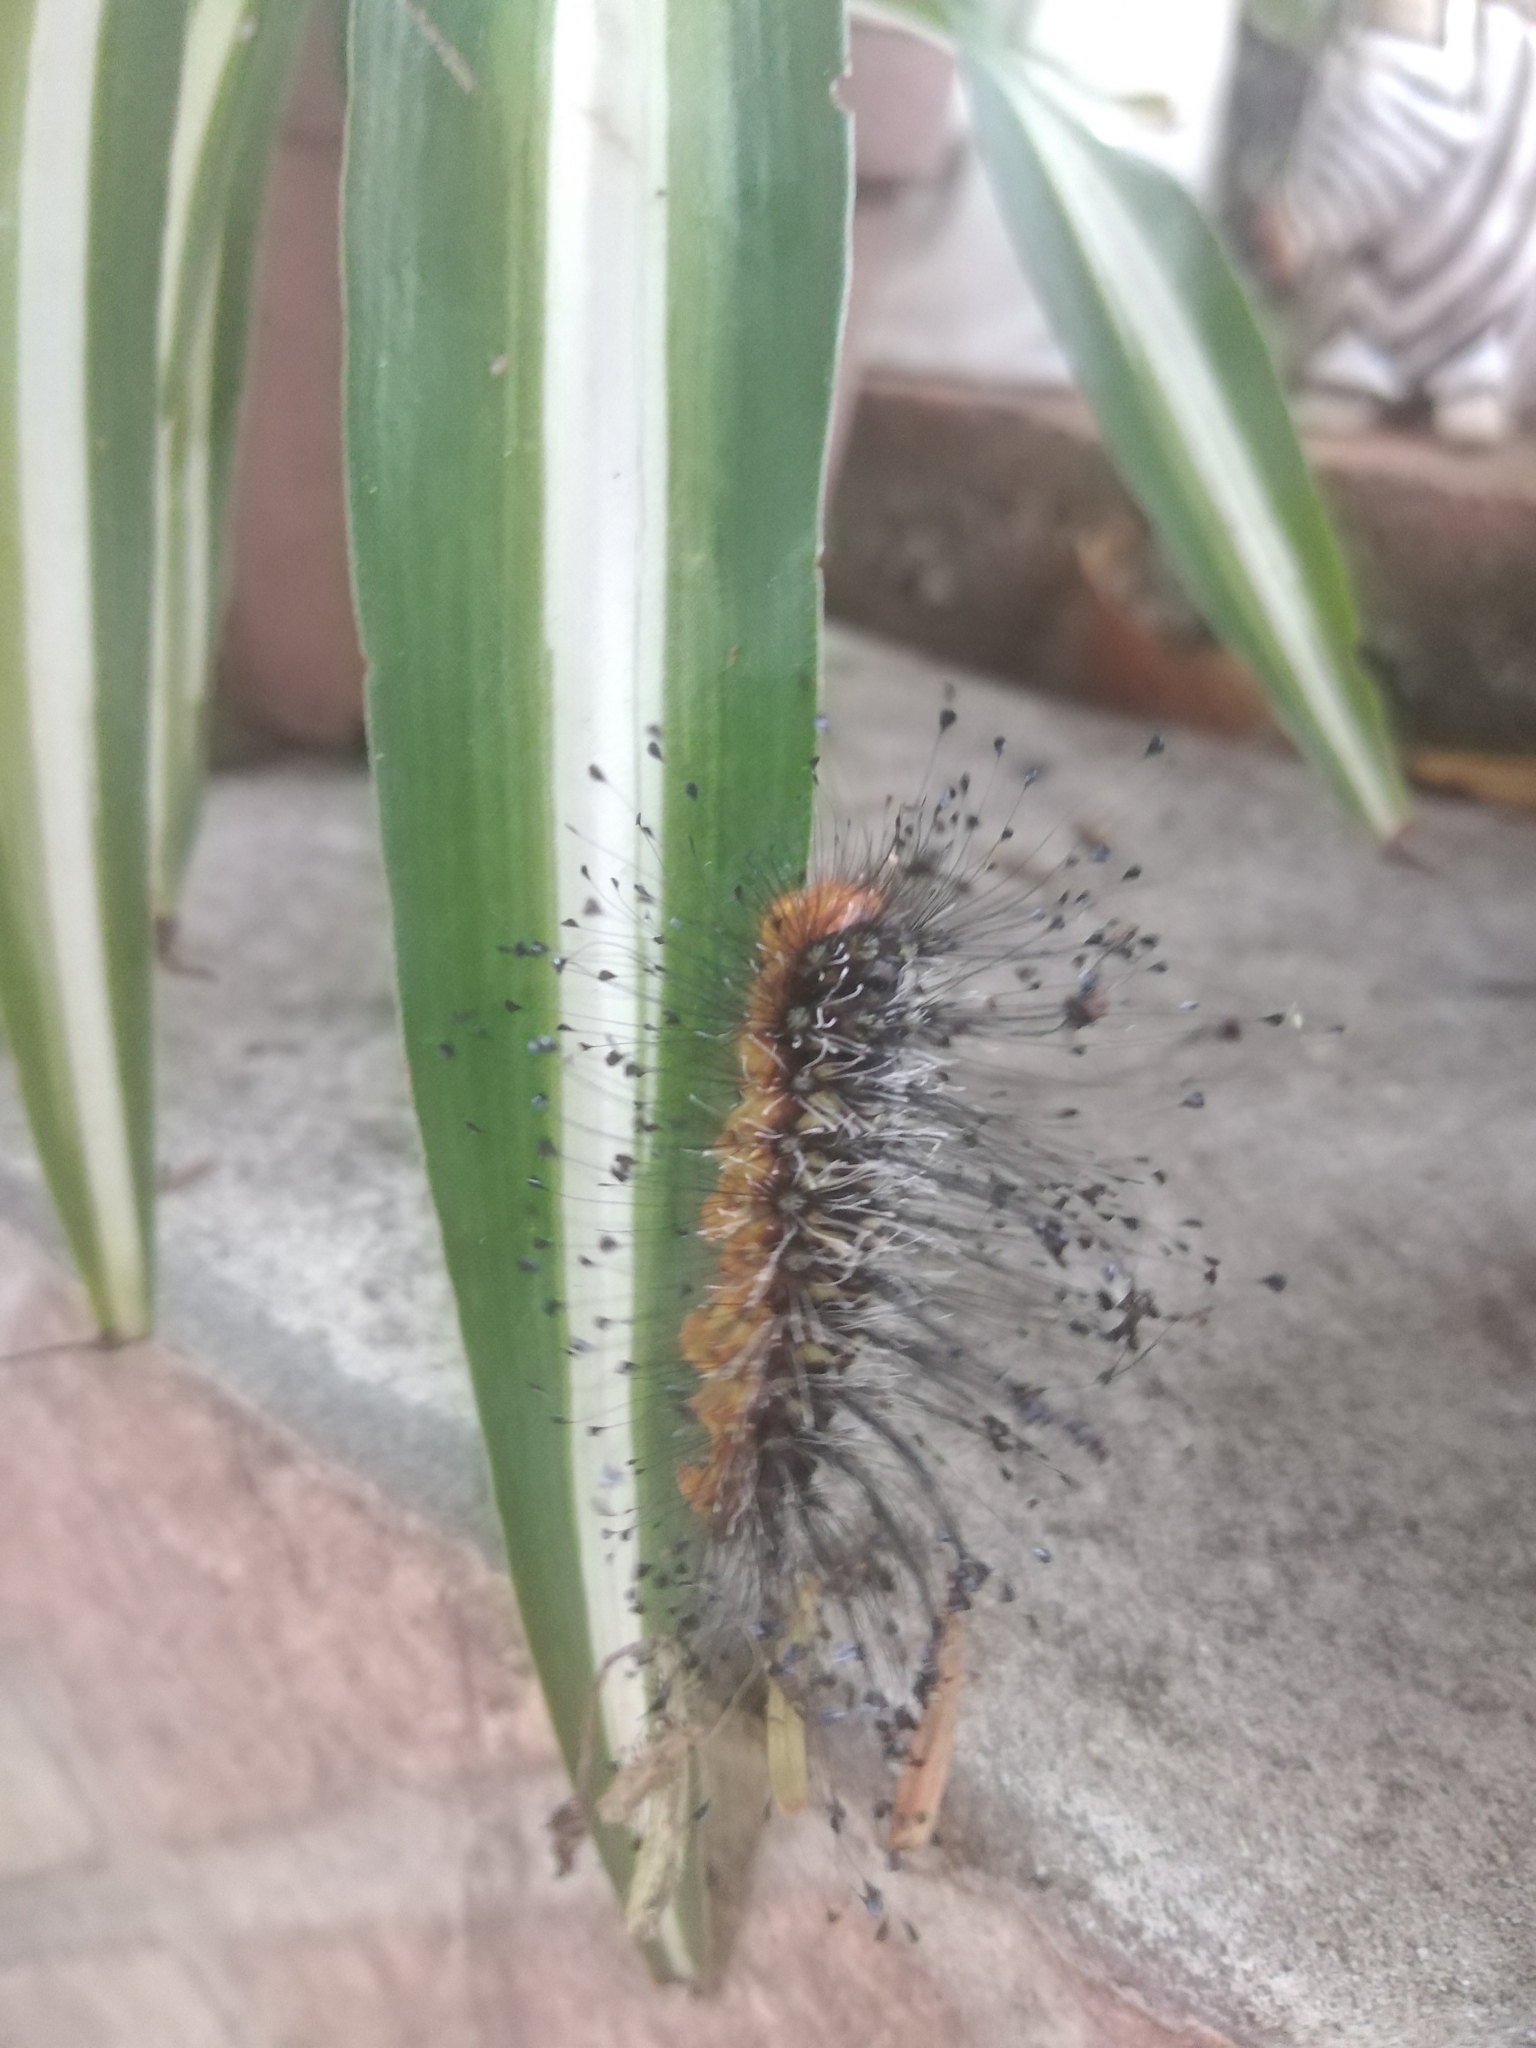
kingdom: Animalia
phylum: Arthropoda
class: Insecta
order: Lepidoptera
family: Megalopygidae
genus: Megalopyge
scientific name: Megalopyge urens
